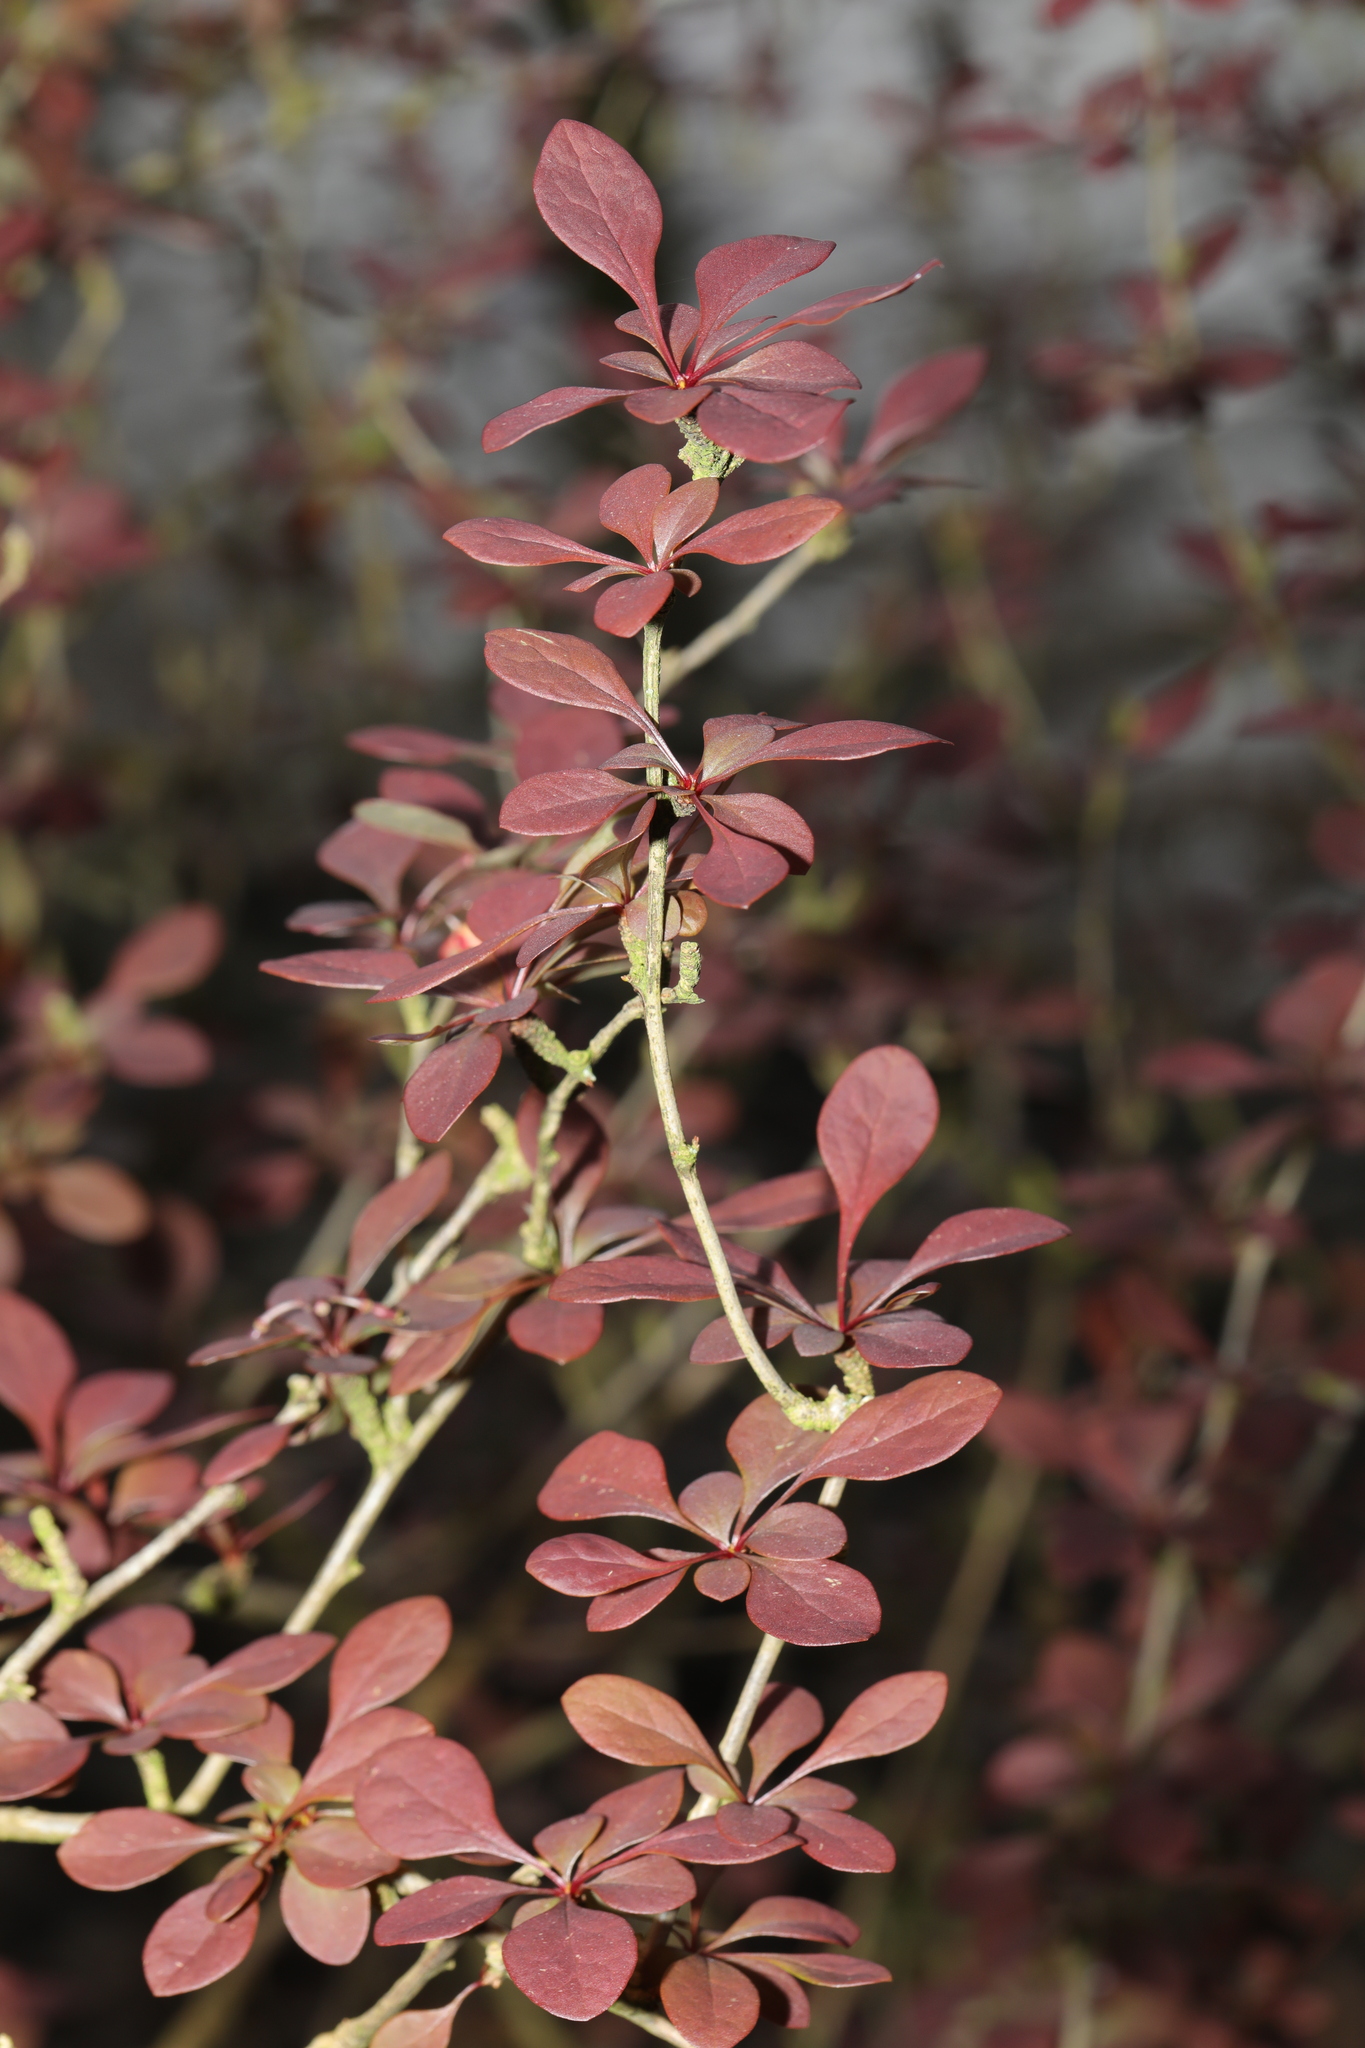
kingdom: Plantae
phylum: Tracheophyta
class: Magnoliopsida
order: Ranunculales
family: Berberidaceae
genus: Berberis
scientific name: Berberis thunbergii
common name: Japanese barberry
